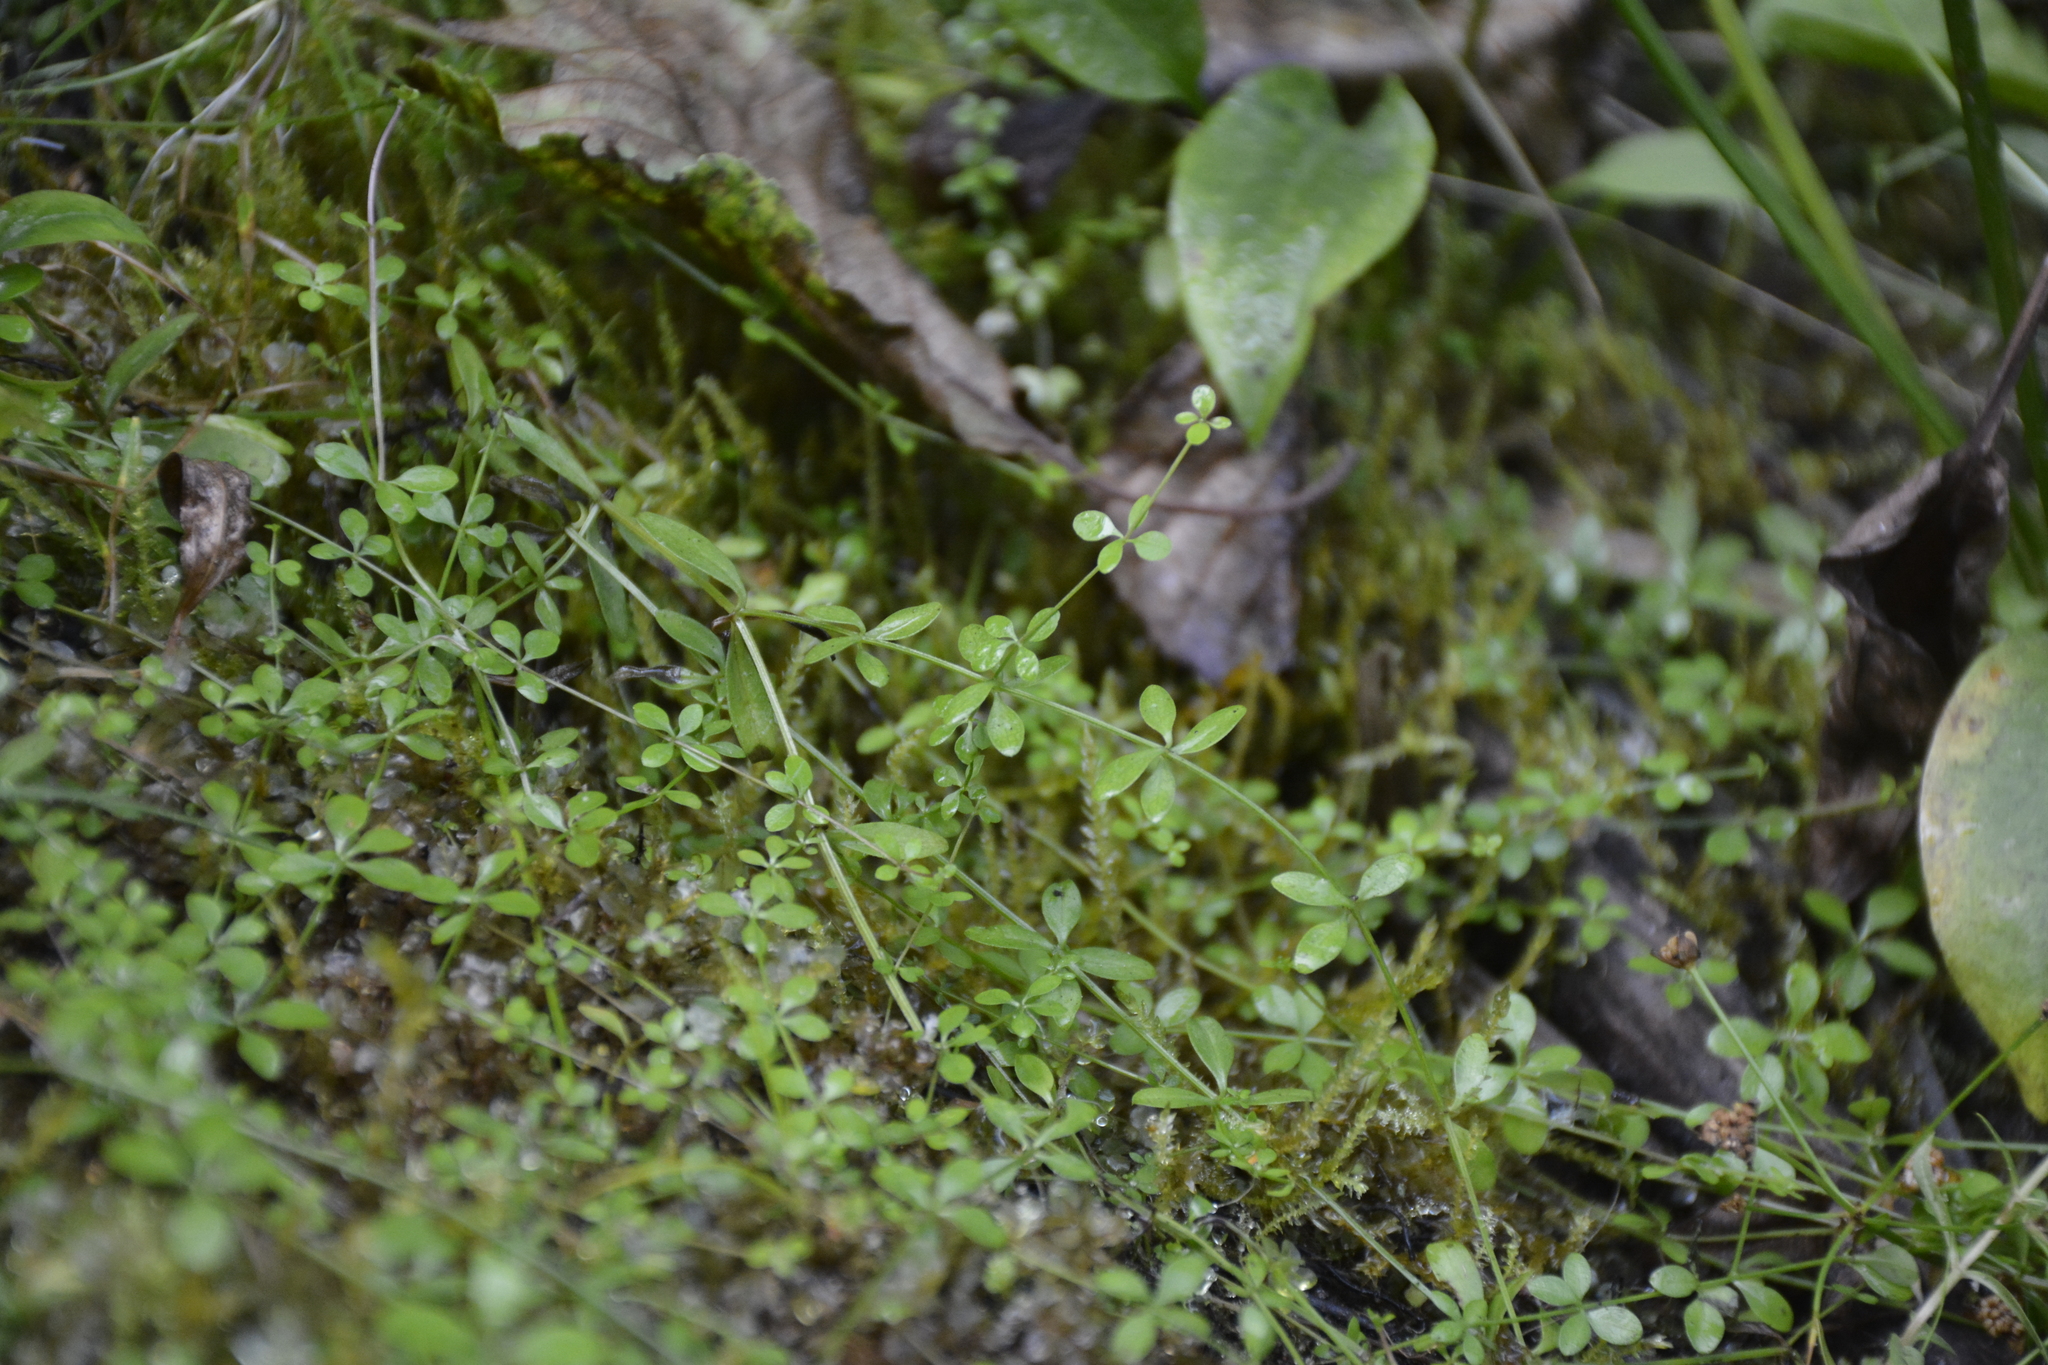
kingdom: Plantae
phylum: Tracheophyta
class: Magnoliopsida
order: Gentianales
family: Rubiaceae
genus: Galium
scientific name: Galium palustre
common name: Common marsh-bedstraw
